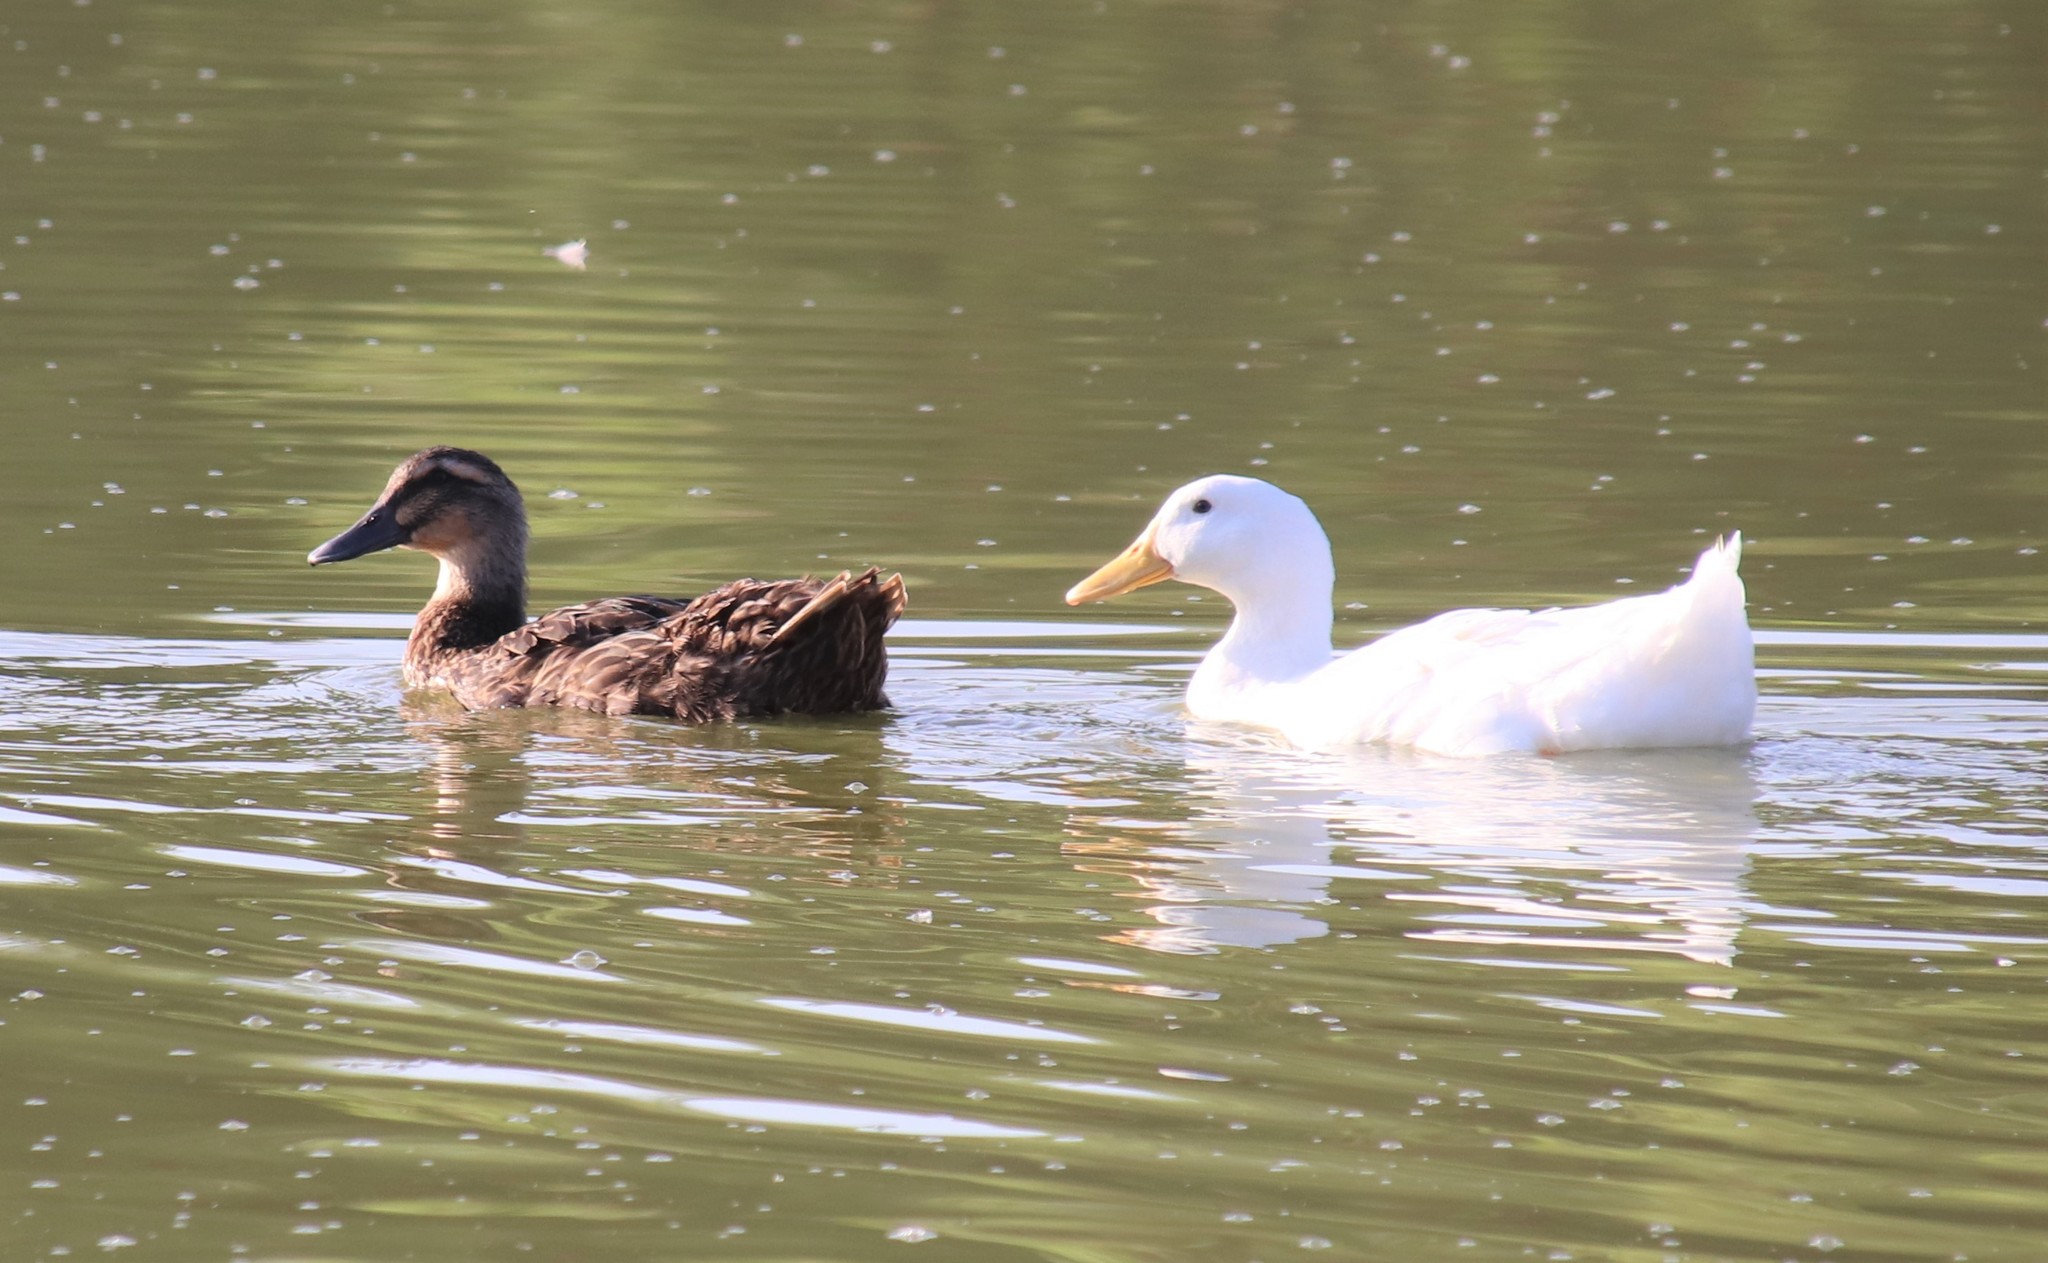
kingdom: Animalia
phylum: Chordata
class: Aves
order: Anseriformes
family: Anatidae
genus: Anas
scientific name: Anas platyrhynchos
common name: Mallard
